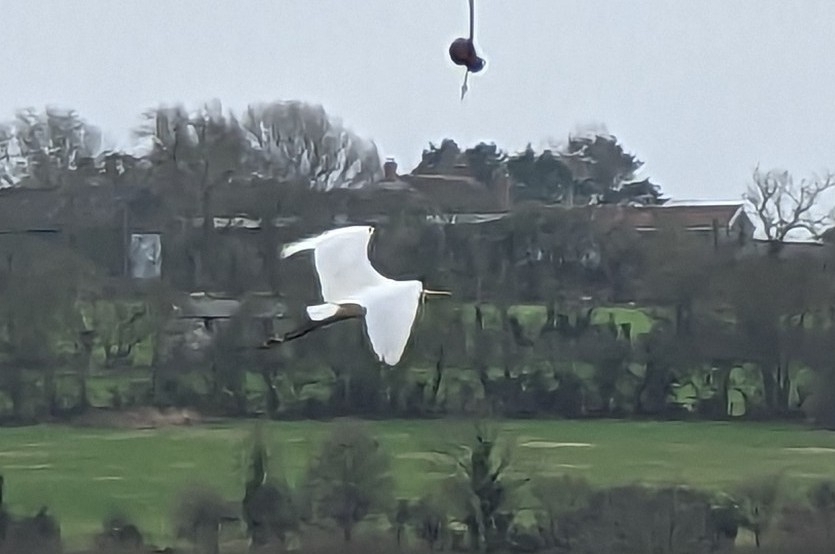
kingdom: Animalia
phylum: Chordata
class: Aves
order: Pelecaniformes
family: Ardeidae
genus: Egretta
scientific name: Egretta garzetta
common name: Little egret
